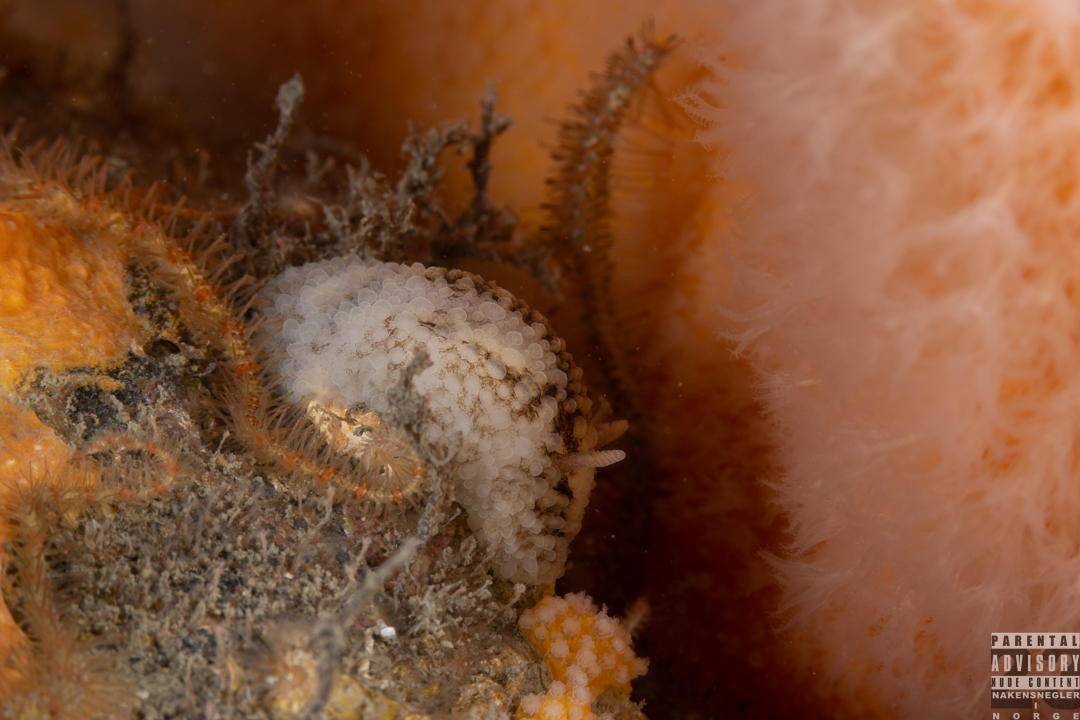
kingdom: Animalia
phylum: Mollusca
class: Gastropoda
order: Nudibranchia
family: Onchidorididae
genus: Onchidoris
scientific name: Onchidoris bilamellata
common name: Barnacle-eating onchidoris
